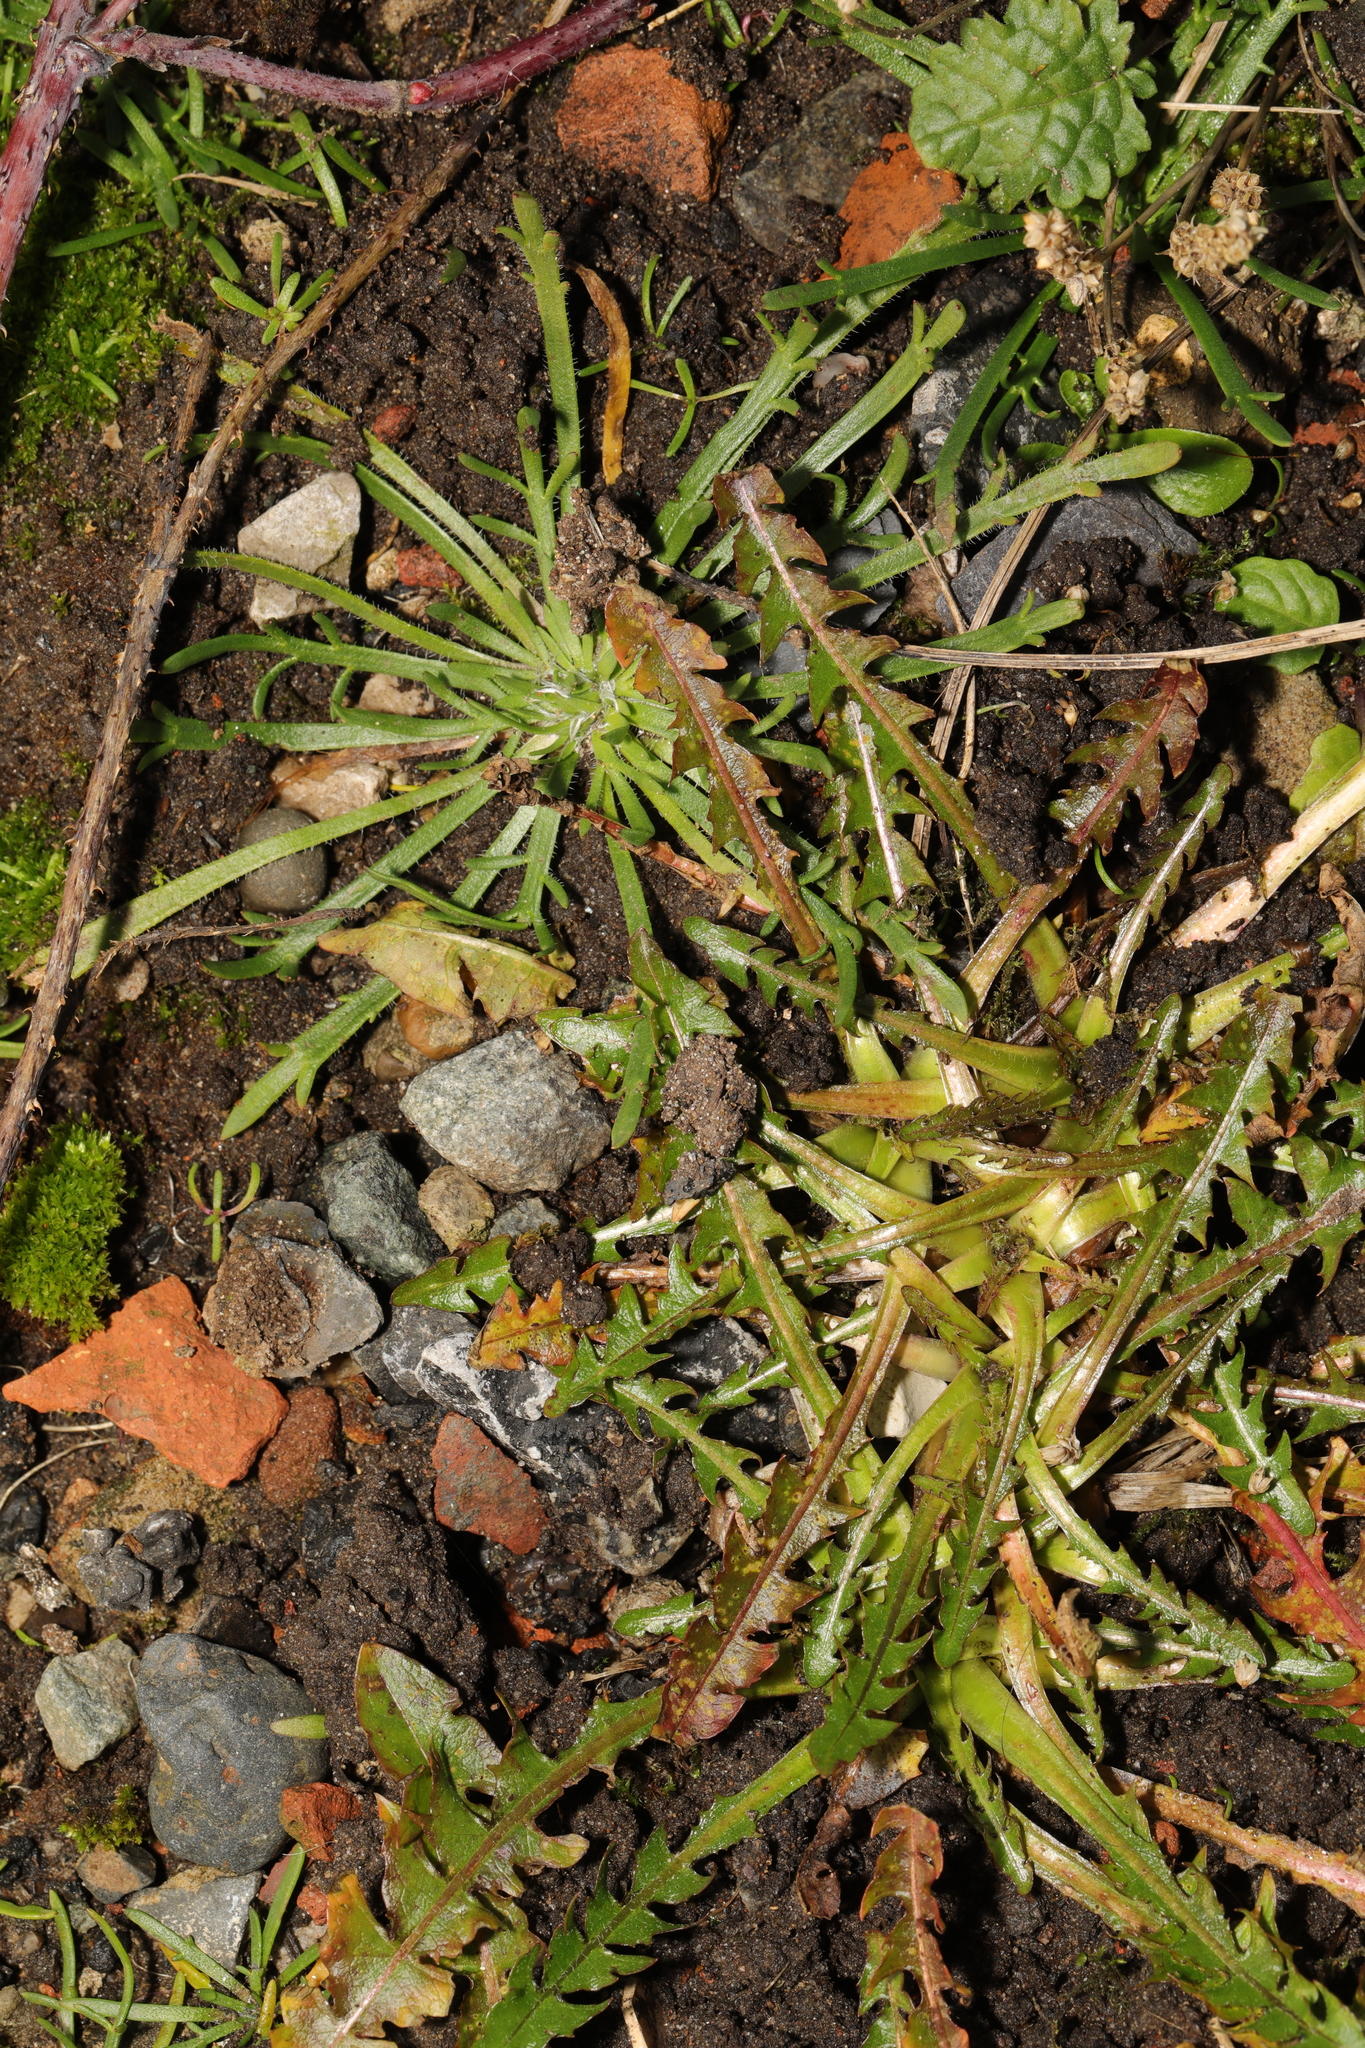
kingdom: Plantae
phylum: Tracheophyta
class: Magnoliopsida
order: Lamiales
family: Plantaginaceae
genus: Plantago
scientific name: Plantago coronopus
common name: Buck's-horn plantain
